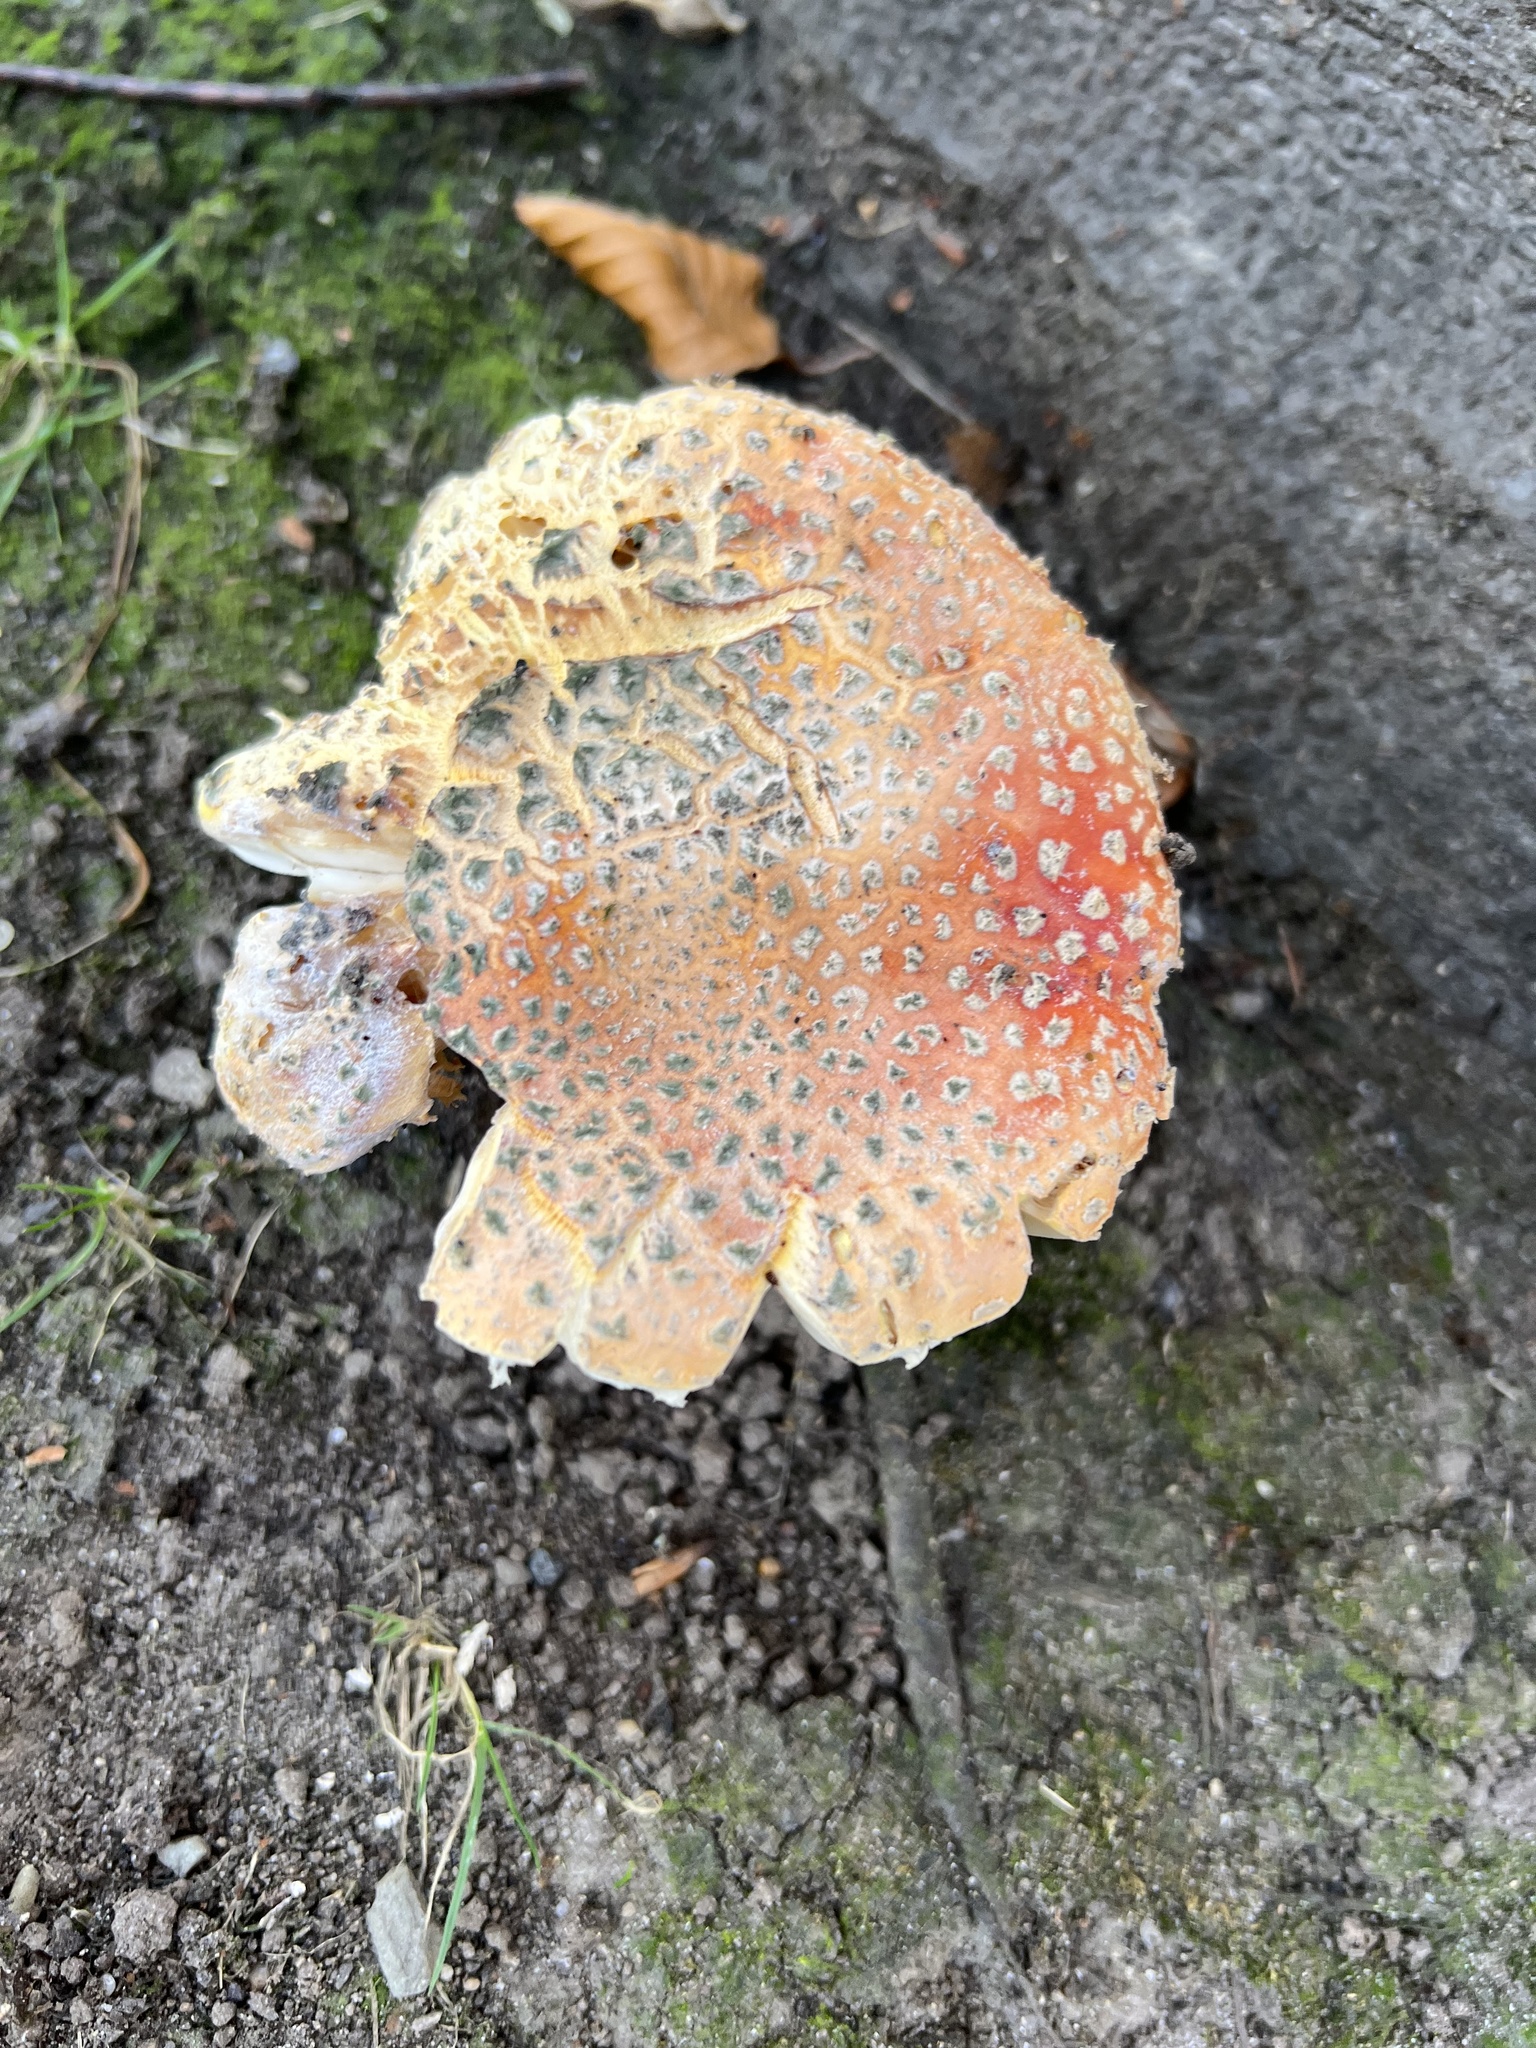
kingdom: Fungi
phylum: Basidiomycota
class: Agaricomycetes
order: Agaricales
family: Amanitaceae
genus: Amanita
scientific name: Amanita muscaria
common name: Fly agaric
